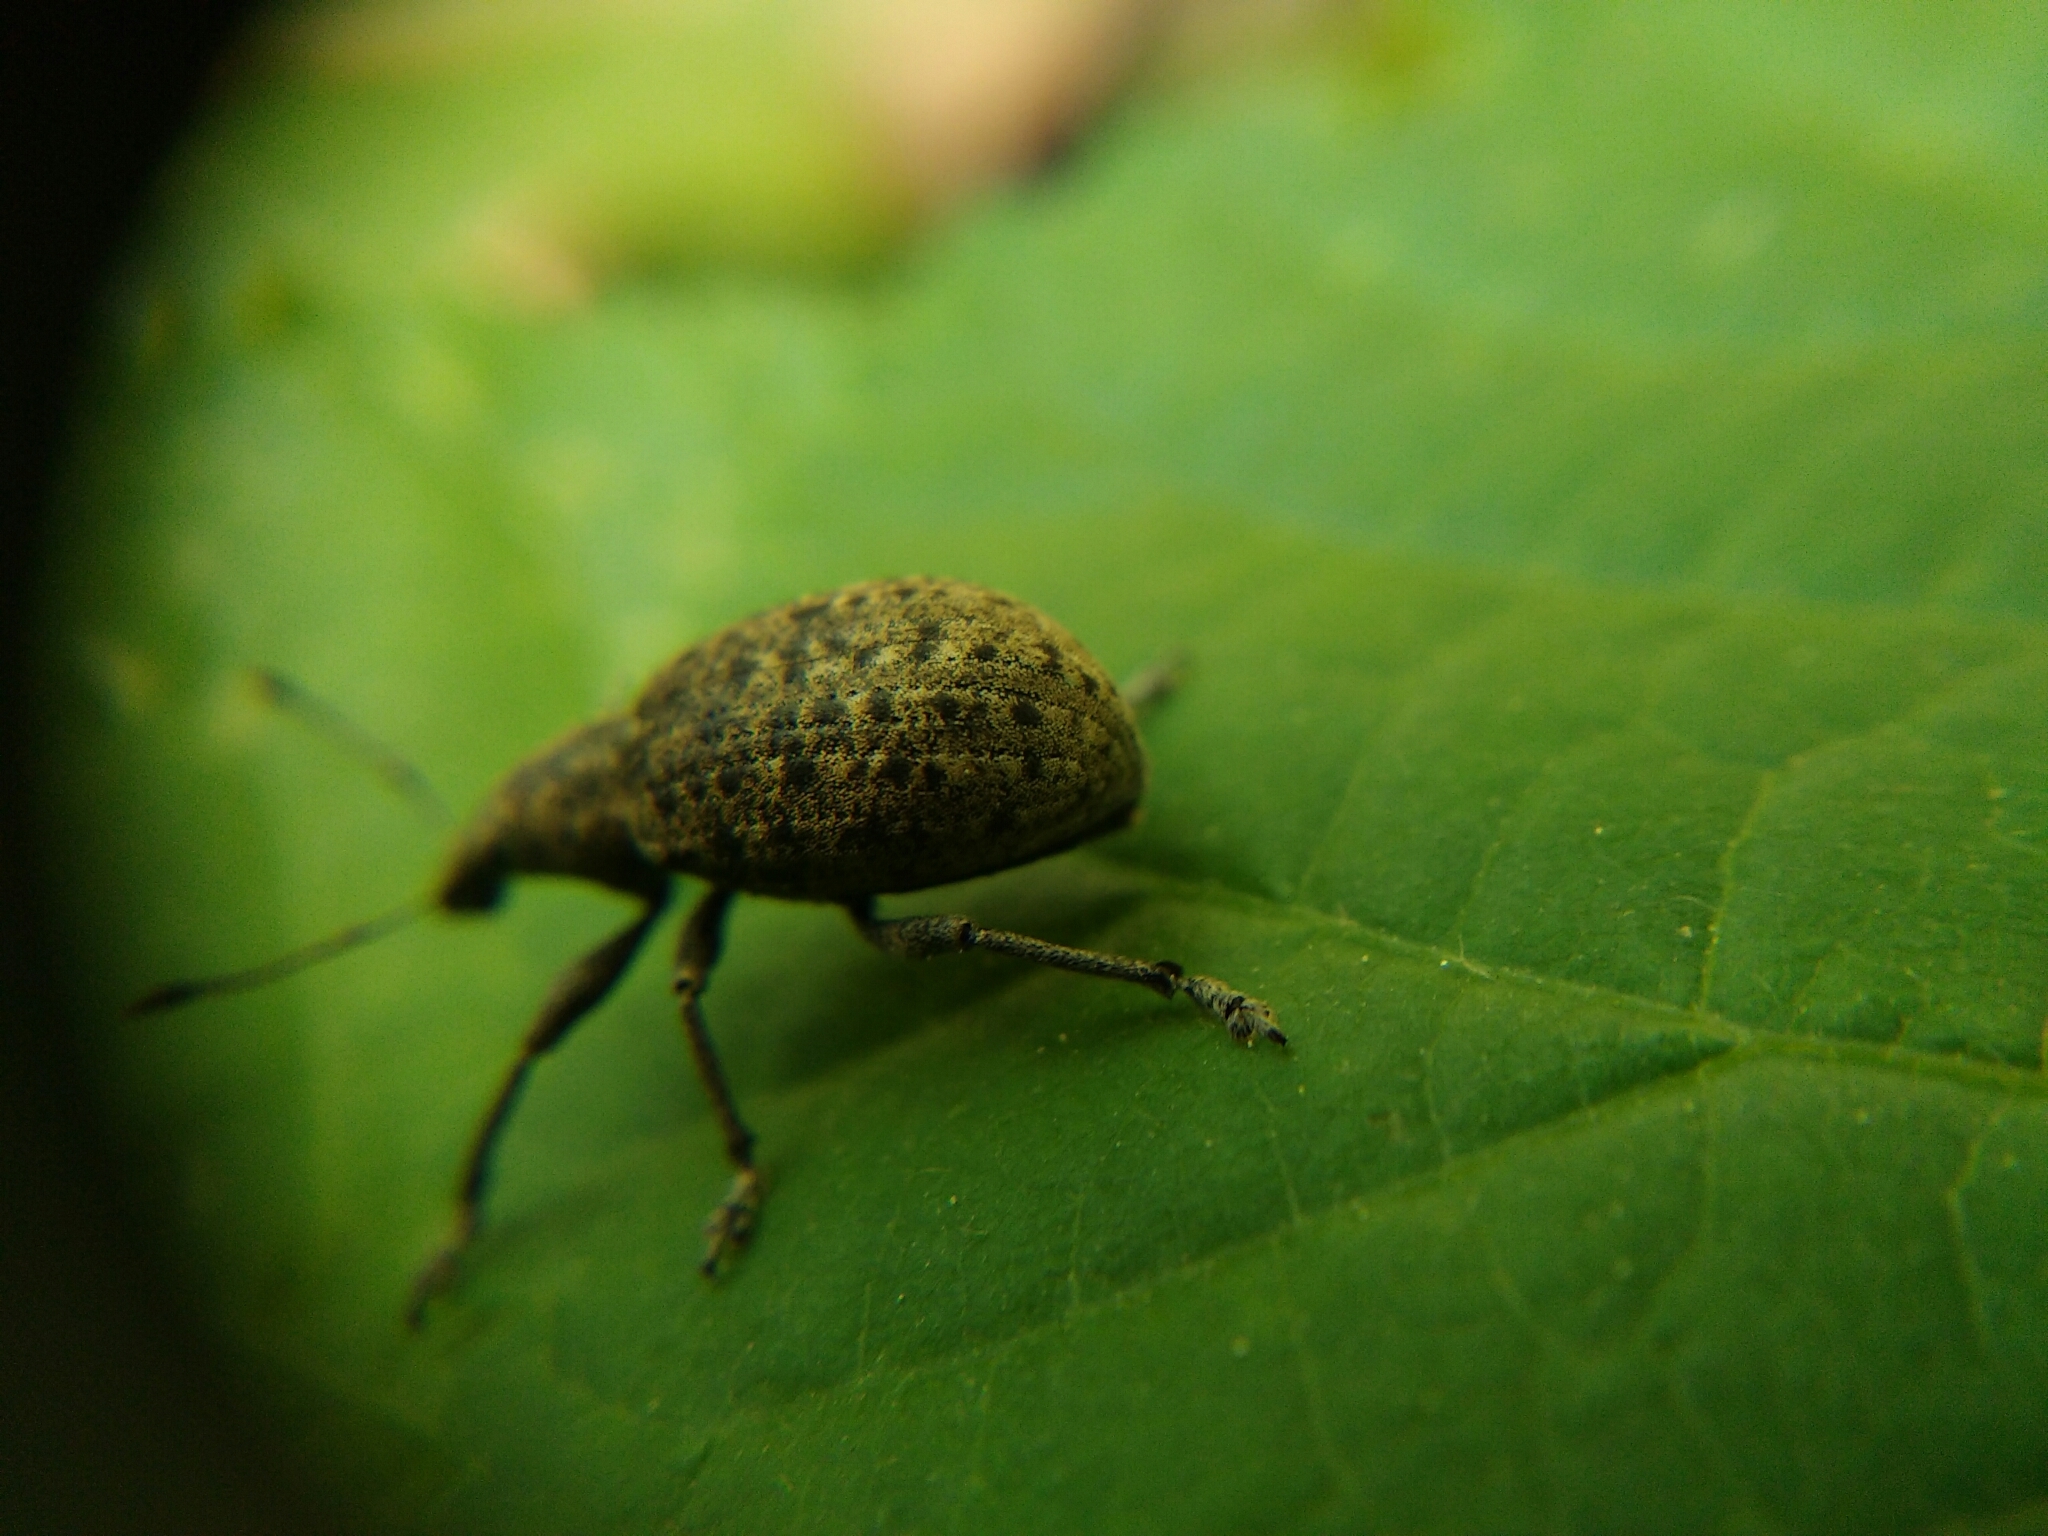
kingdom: Animalia
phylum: Arthropoda
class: Insecta
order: Coleoptera
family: Curculionidae
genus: Liophloeus
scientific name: Liophloeus tessulatus
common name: Weevil
